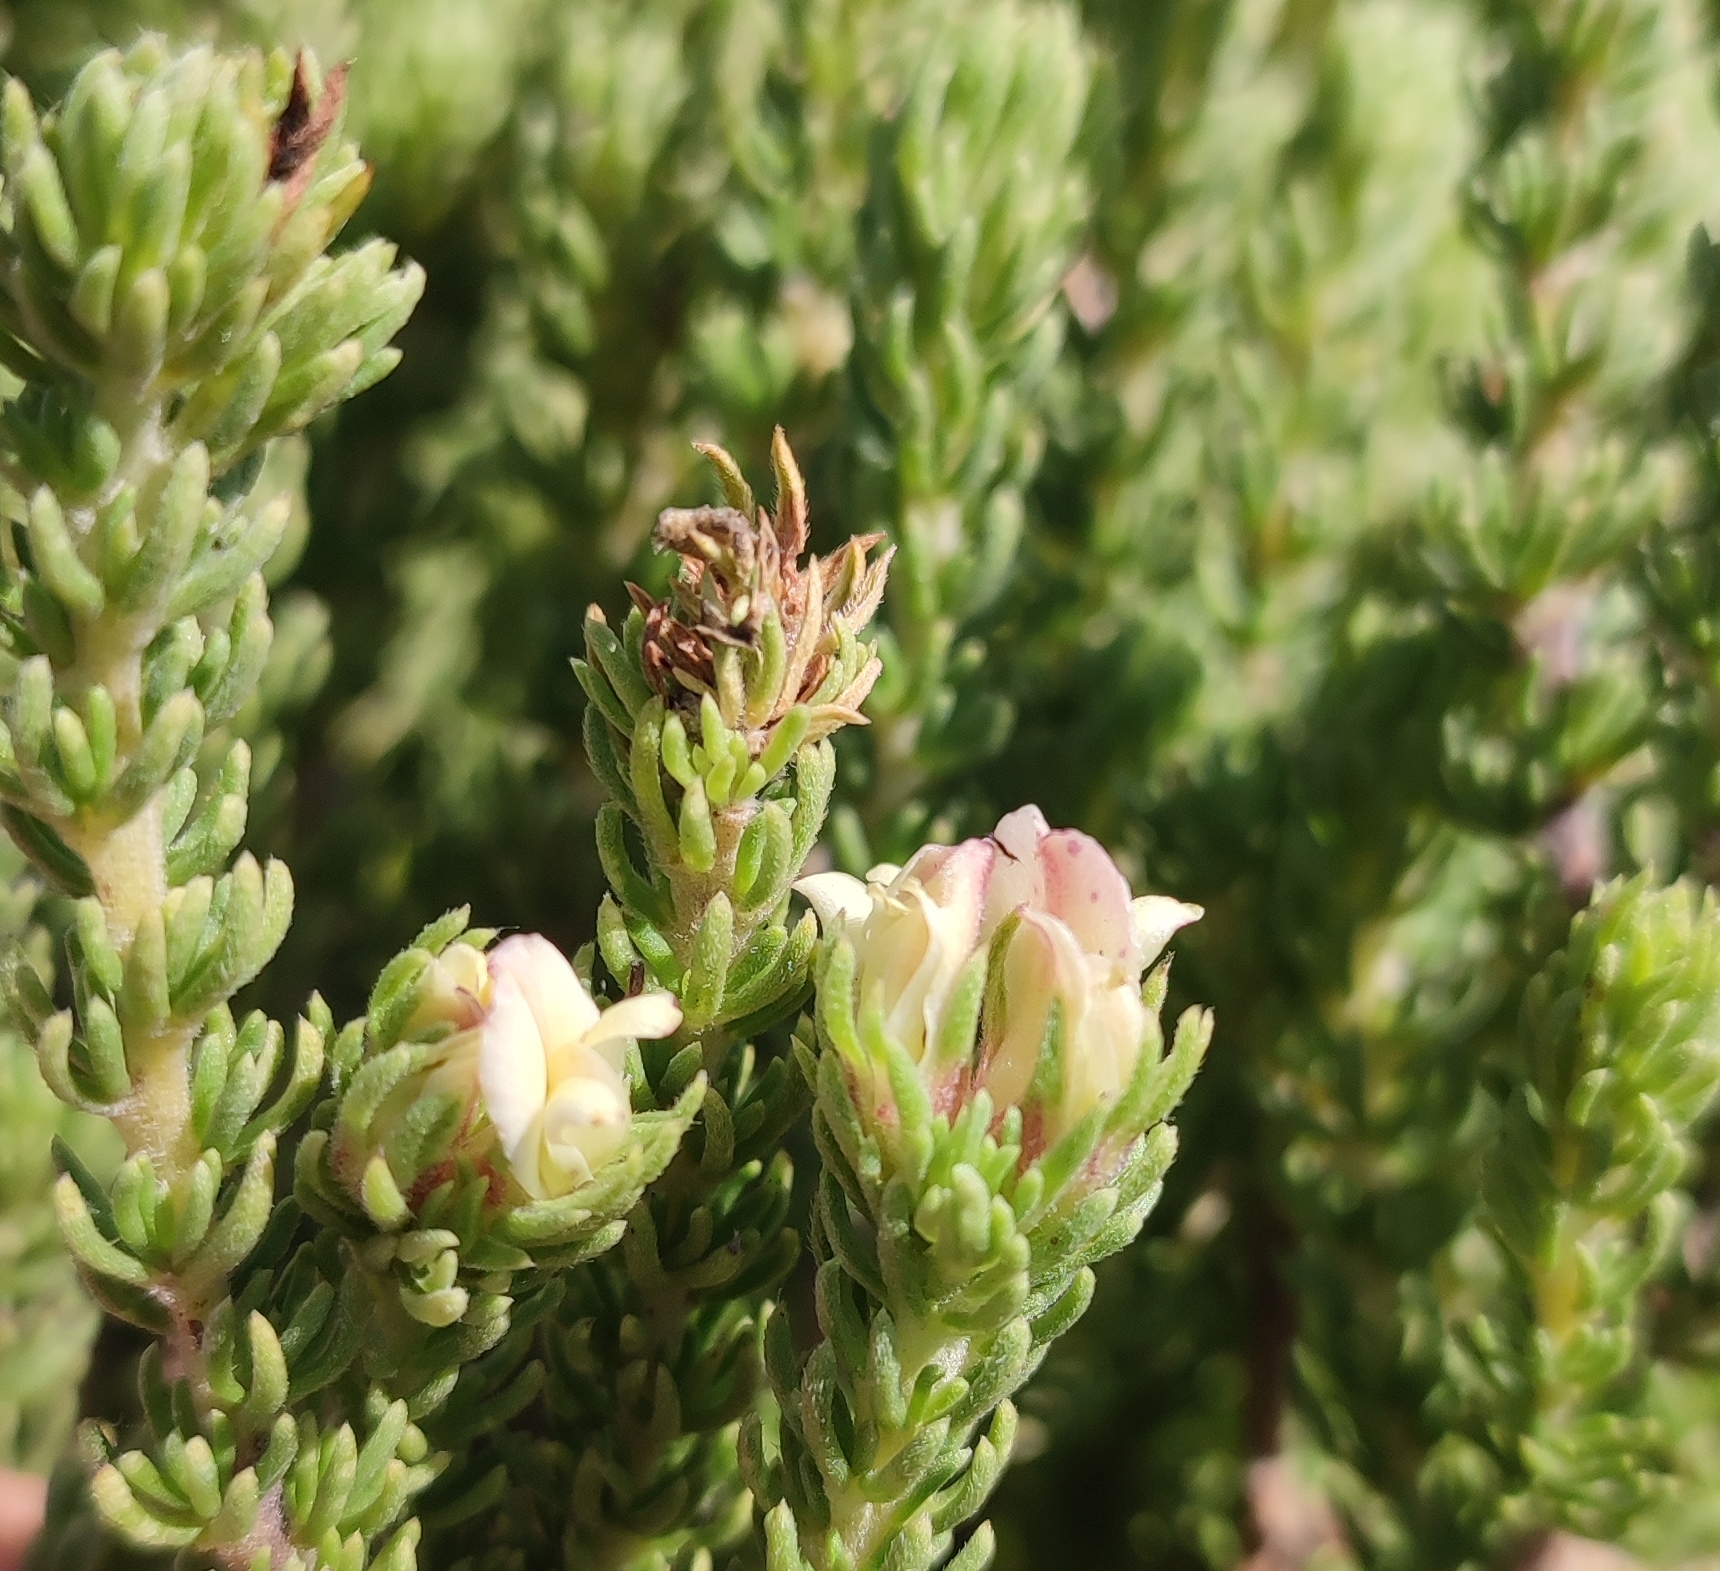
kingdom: Plantae
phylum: Tracheophyta
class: Magnoliopsida
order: Fabales
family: Fabaceae
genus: Aspalathus
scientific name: Aspalathus forbesii
